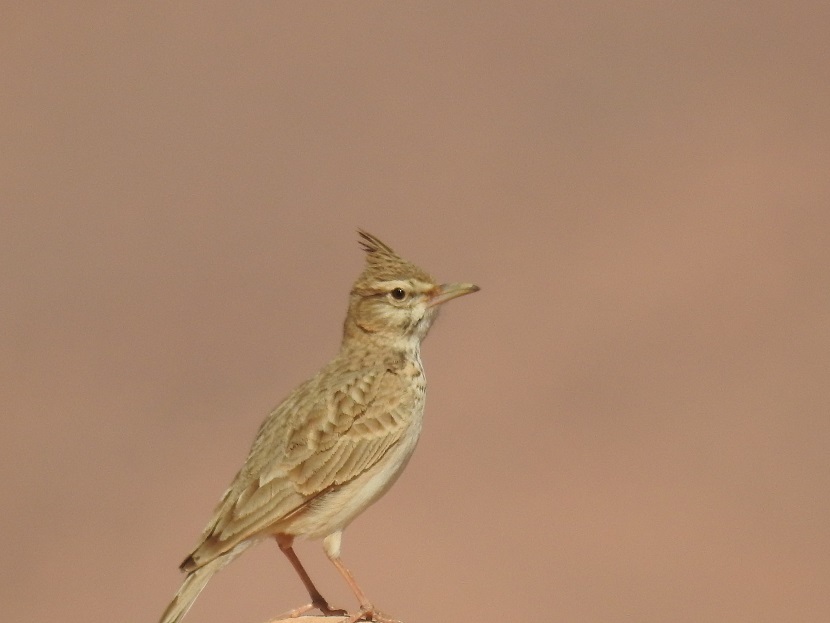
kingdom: Animalia
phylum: Chordata
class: Aves
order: Passeriformes
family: Alaudidae
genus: Galerida
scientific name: Galerida cristata
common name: Crested lark
